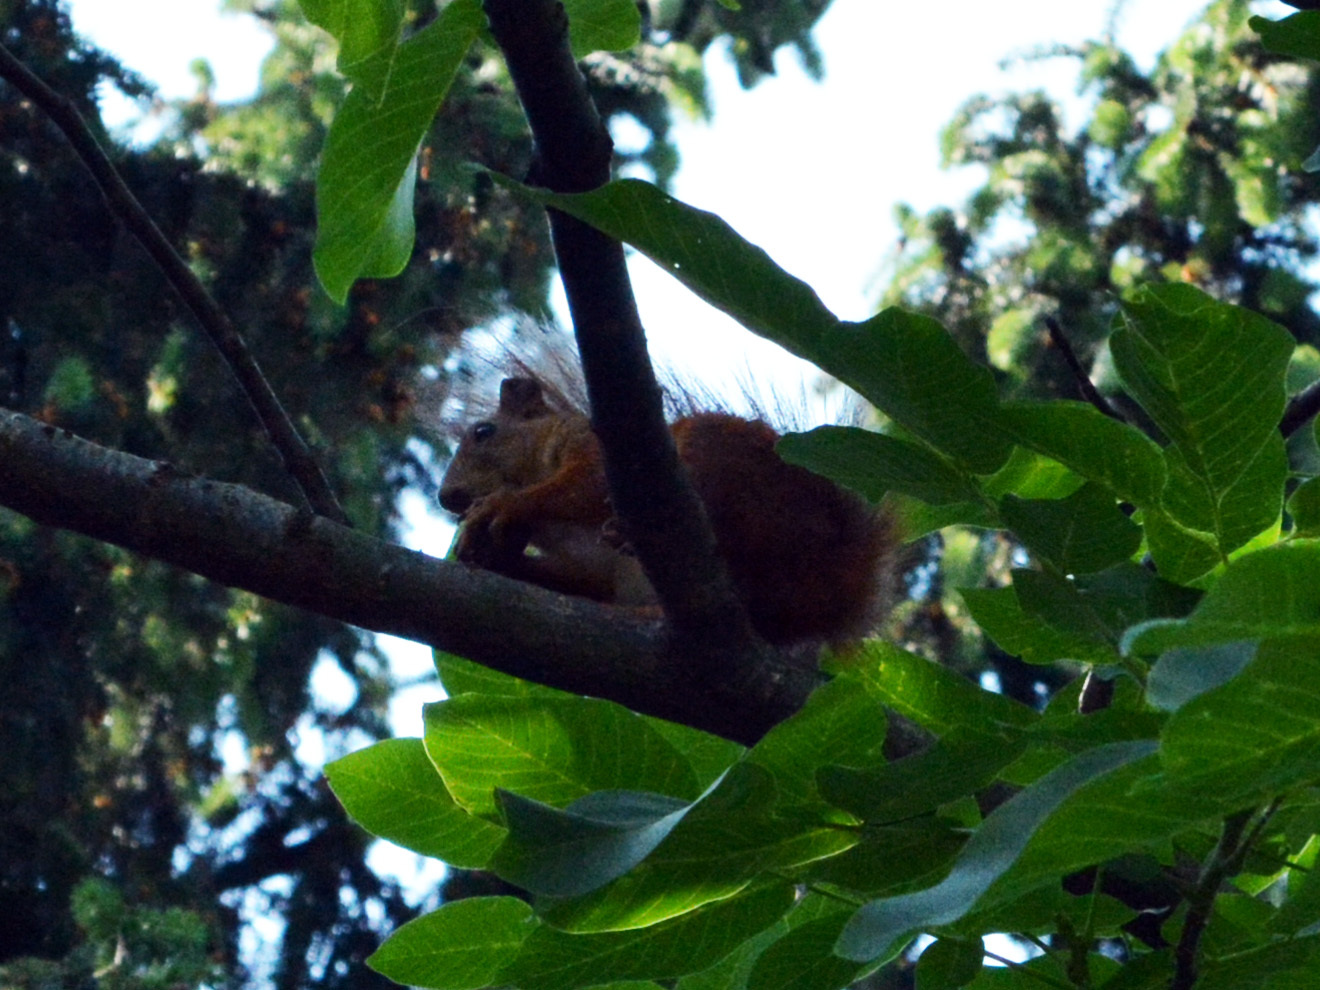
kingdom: Animalia
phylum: Chordata
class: Mammalia
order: Rodentia
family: Sciuridae
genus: Sciurus
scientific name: Sciurus vulgaris
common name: Eurasian red squirrel
